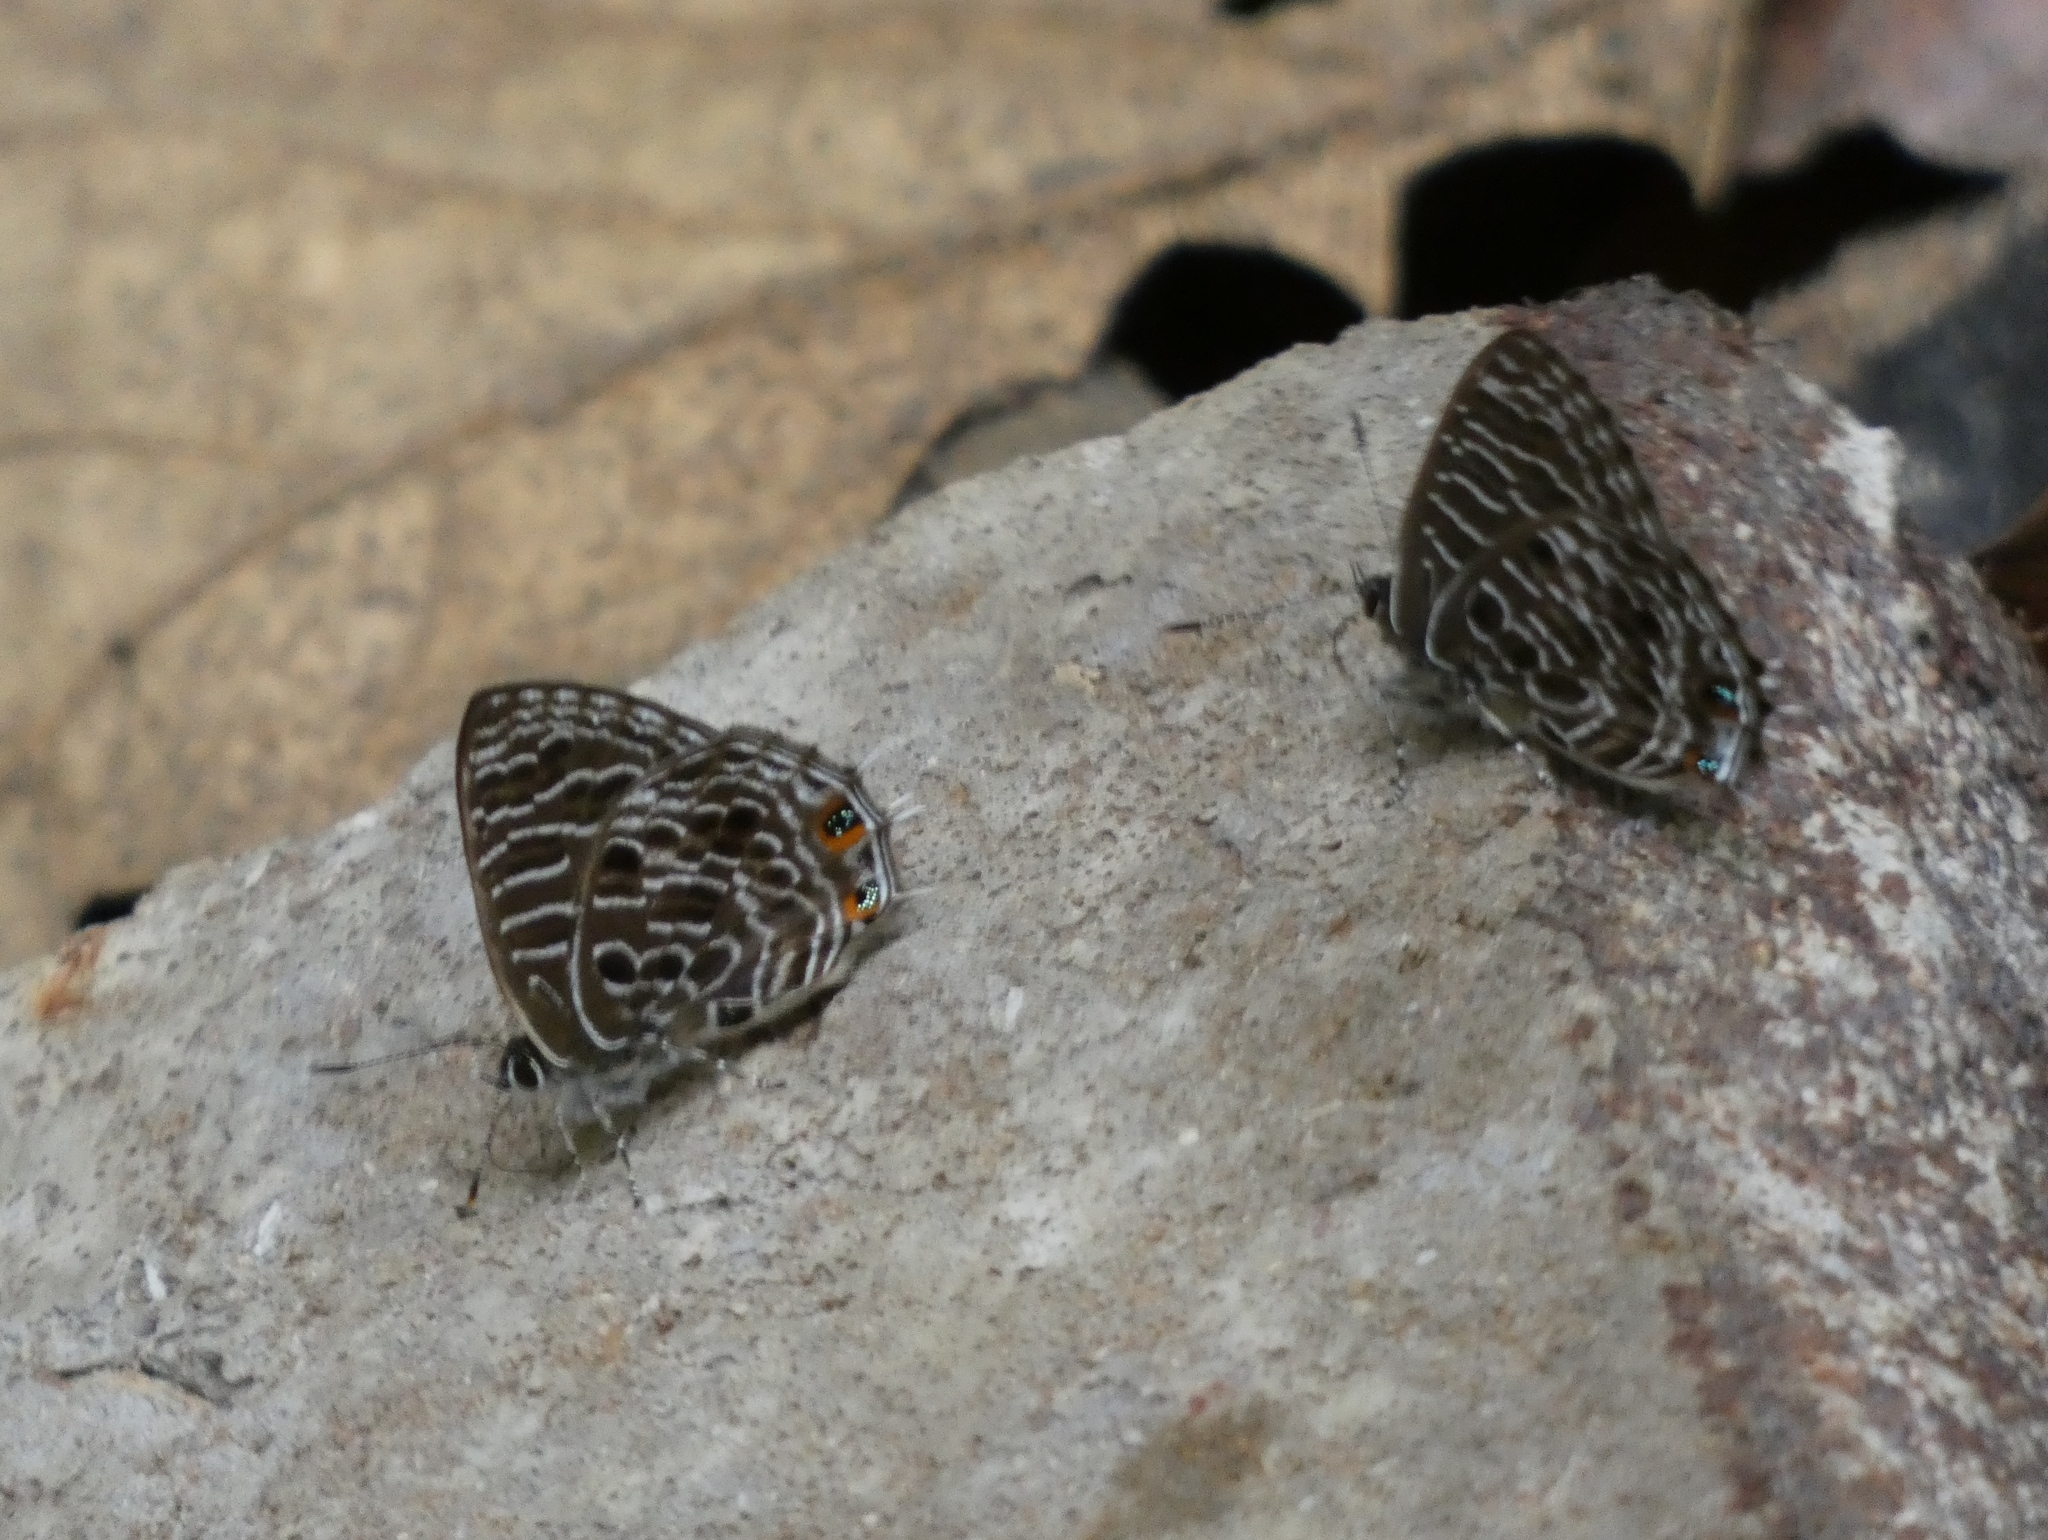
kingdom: Animalia
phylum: Arthropoda
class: Insecta
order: Lepidoptera
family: Lycaenidae
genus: Anthene
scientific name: Anthene larydas
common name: Forest hairtail
